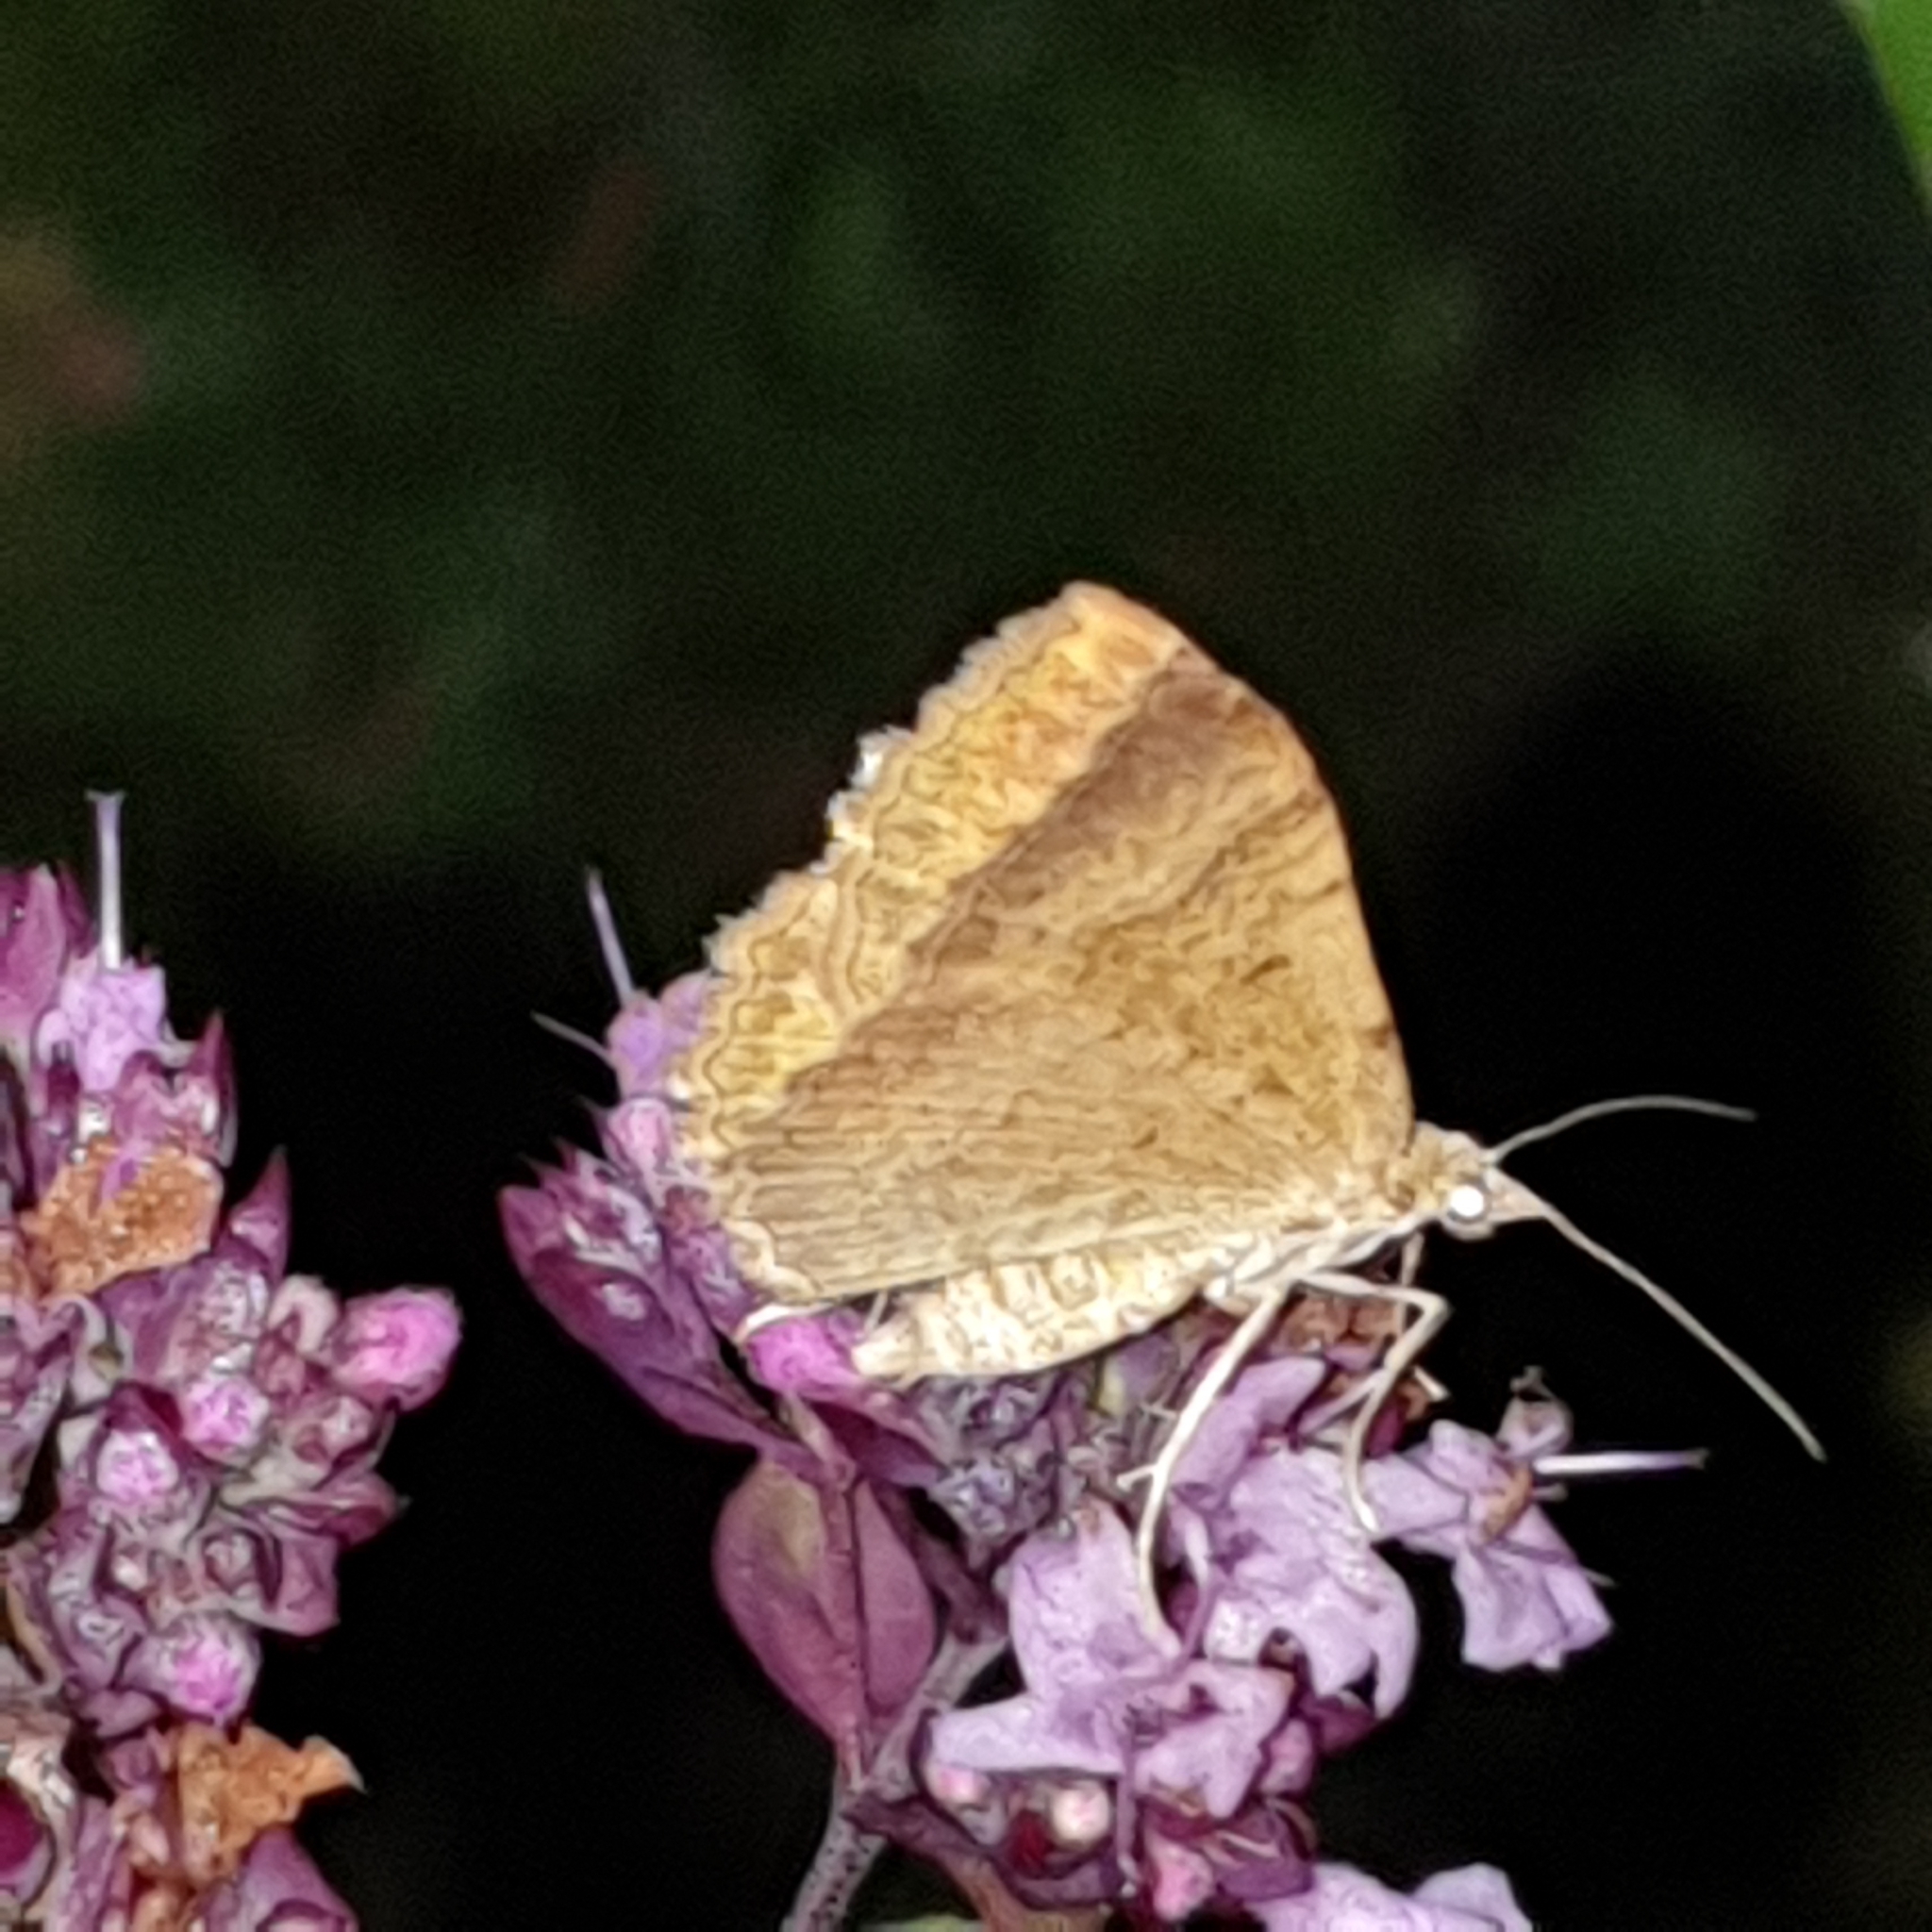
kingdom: Animalia
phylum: Arthropoda
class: Insecta
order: Lepidoptera
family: Geometridae
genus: Camptogramma
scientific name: Camptogramma bilineata
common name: Yellow shell
